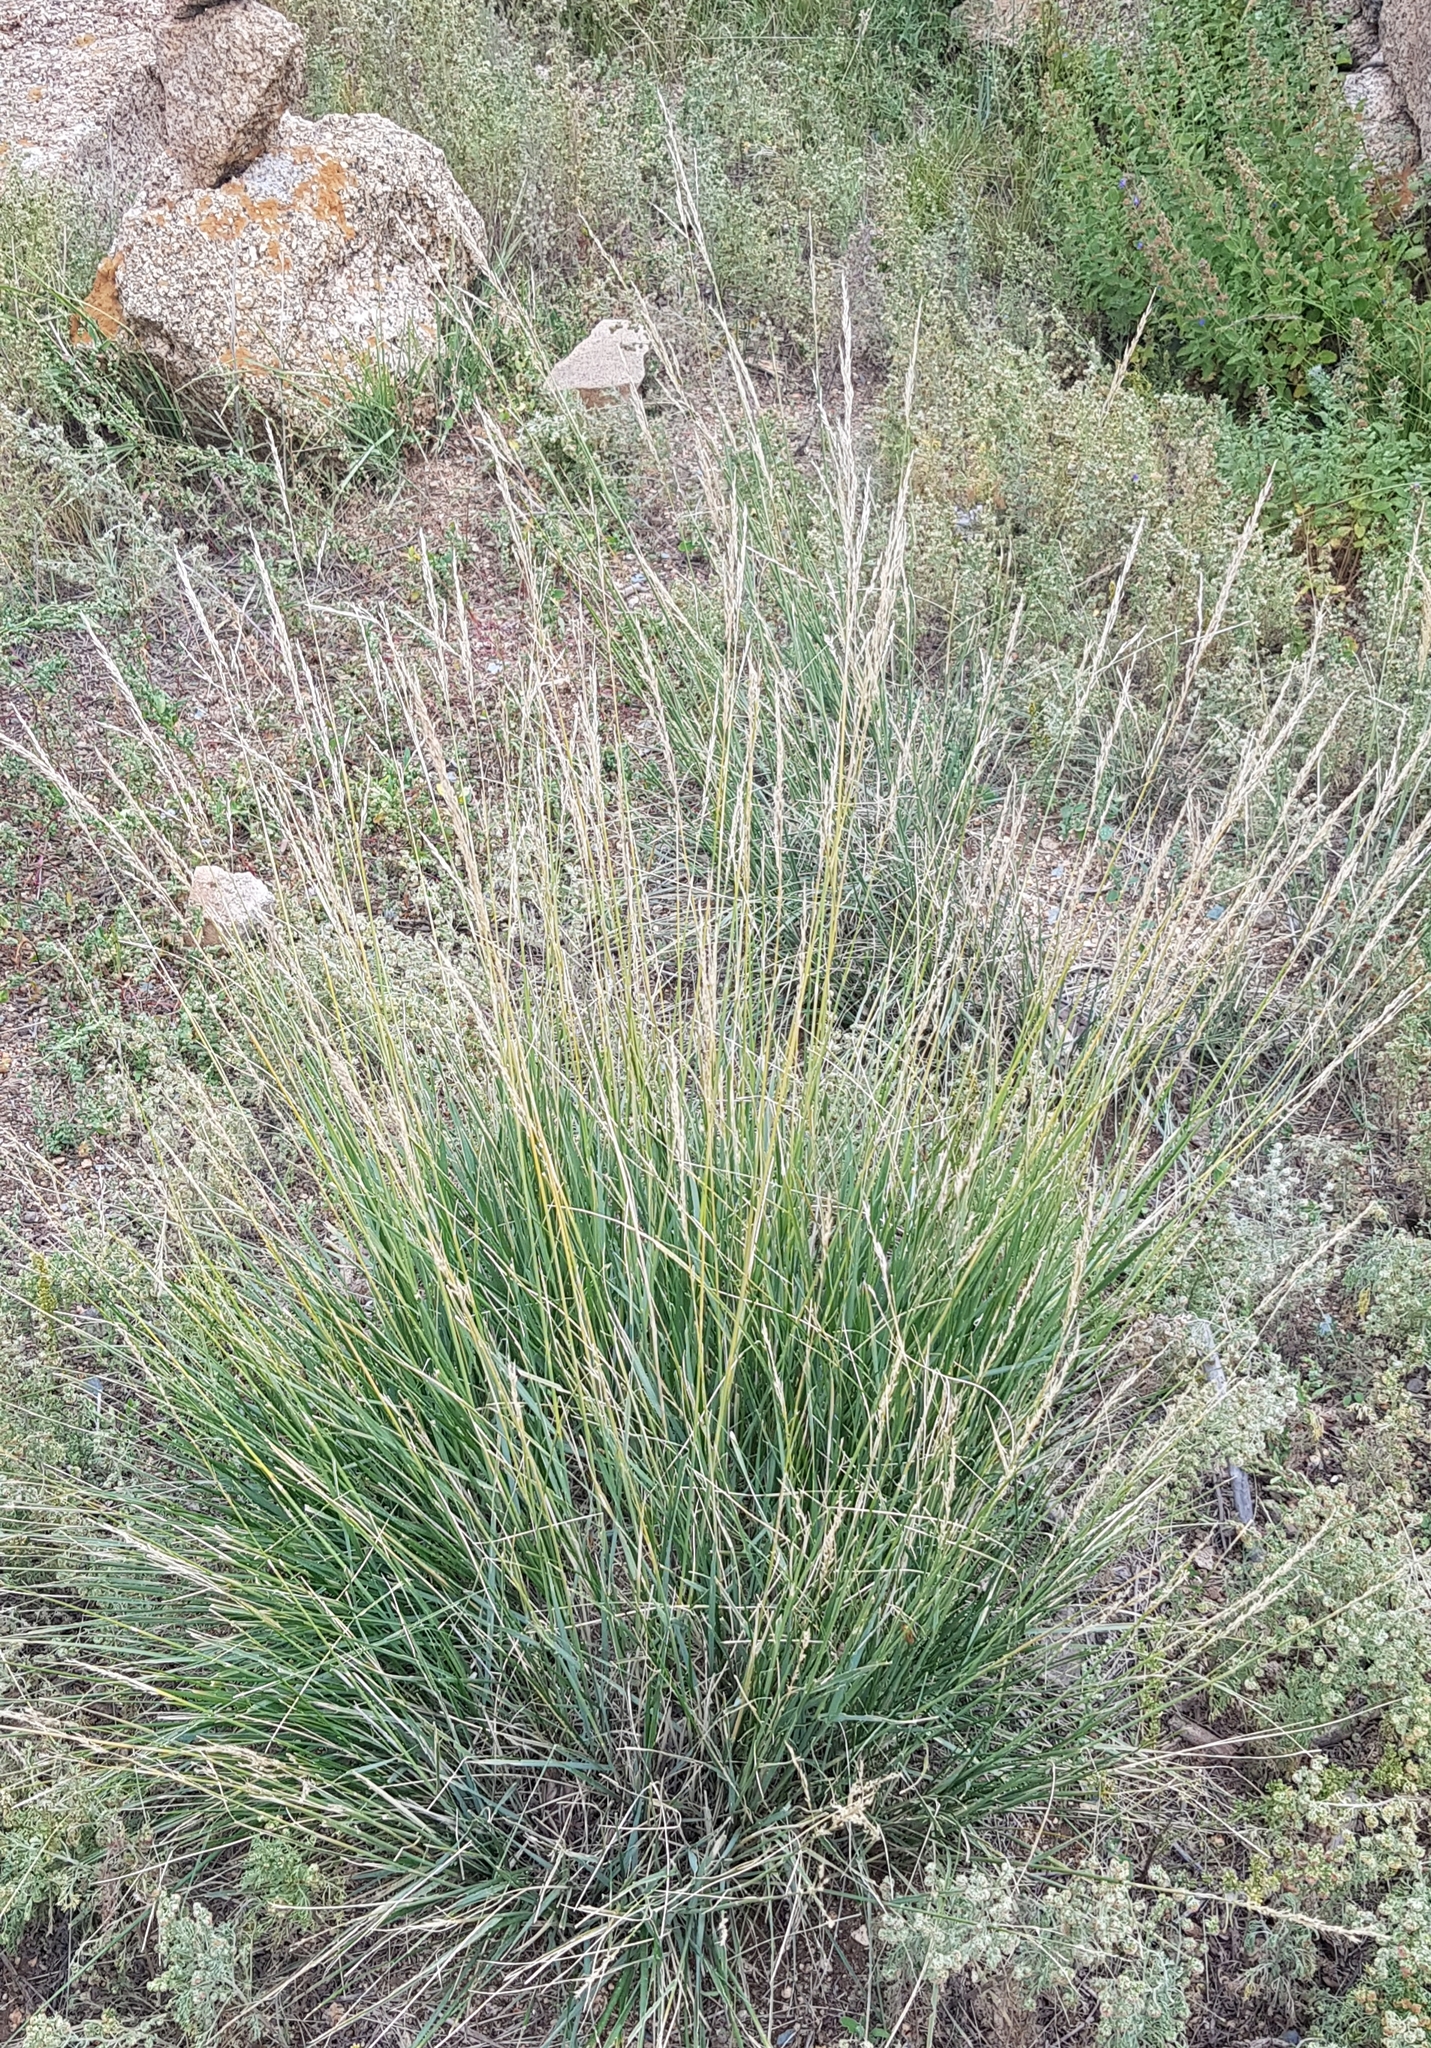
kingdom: Plantae
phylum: Tracheophyta
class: Liliopsida
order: Poales
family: Poaceae
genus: Neotrinia
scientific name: Neotrinia splendens
